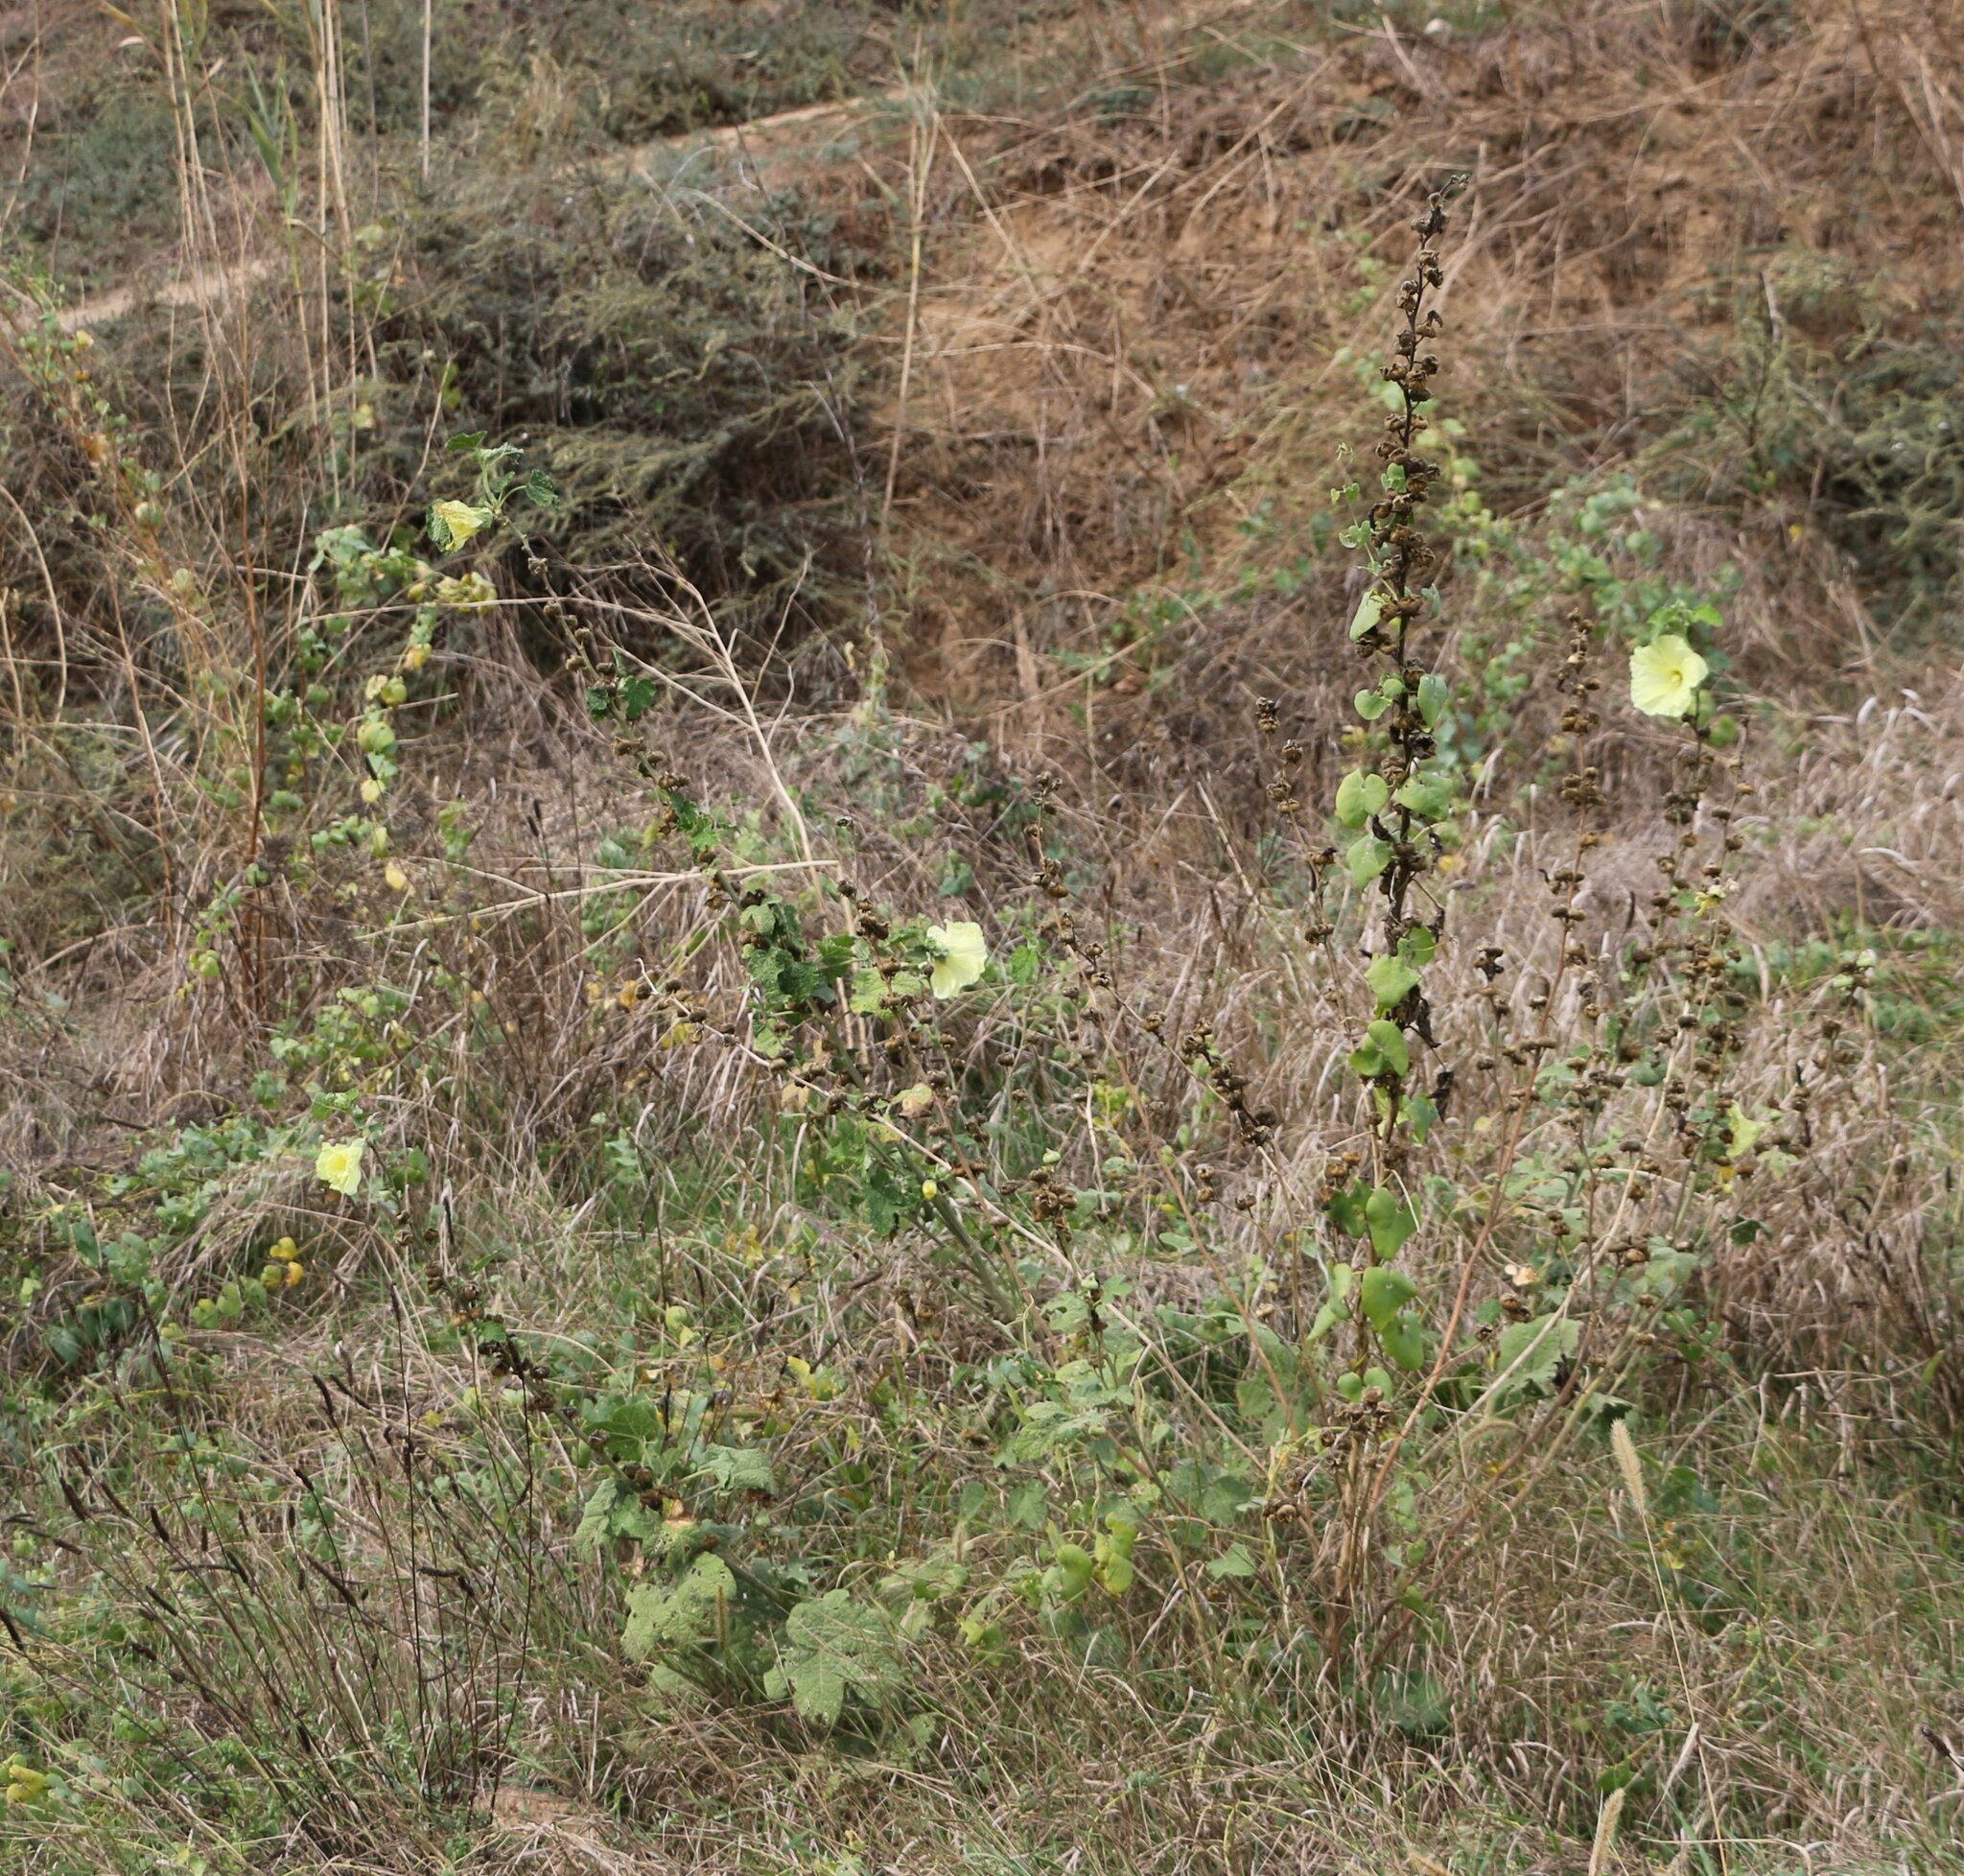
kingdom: Plantae
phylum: Tracheophyta
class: Magnoliopsida
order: Malvales
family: Malvaceae
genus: Alcea
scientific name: Alcea rugosa
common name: Russian hollyhock
